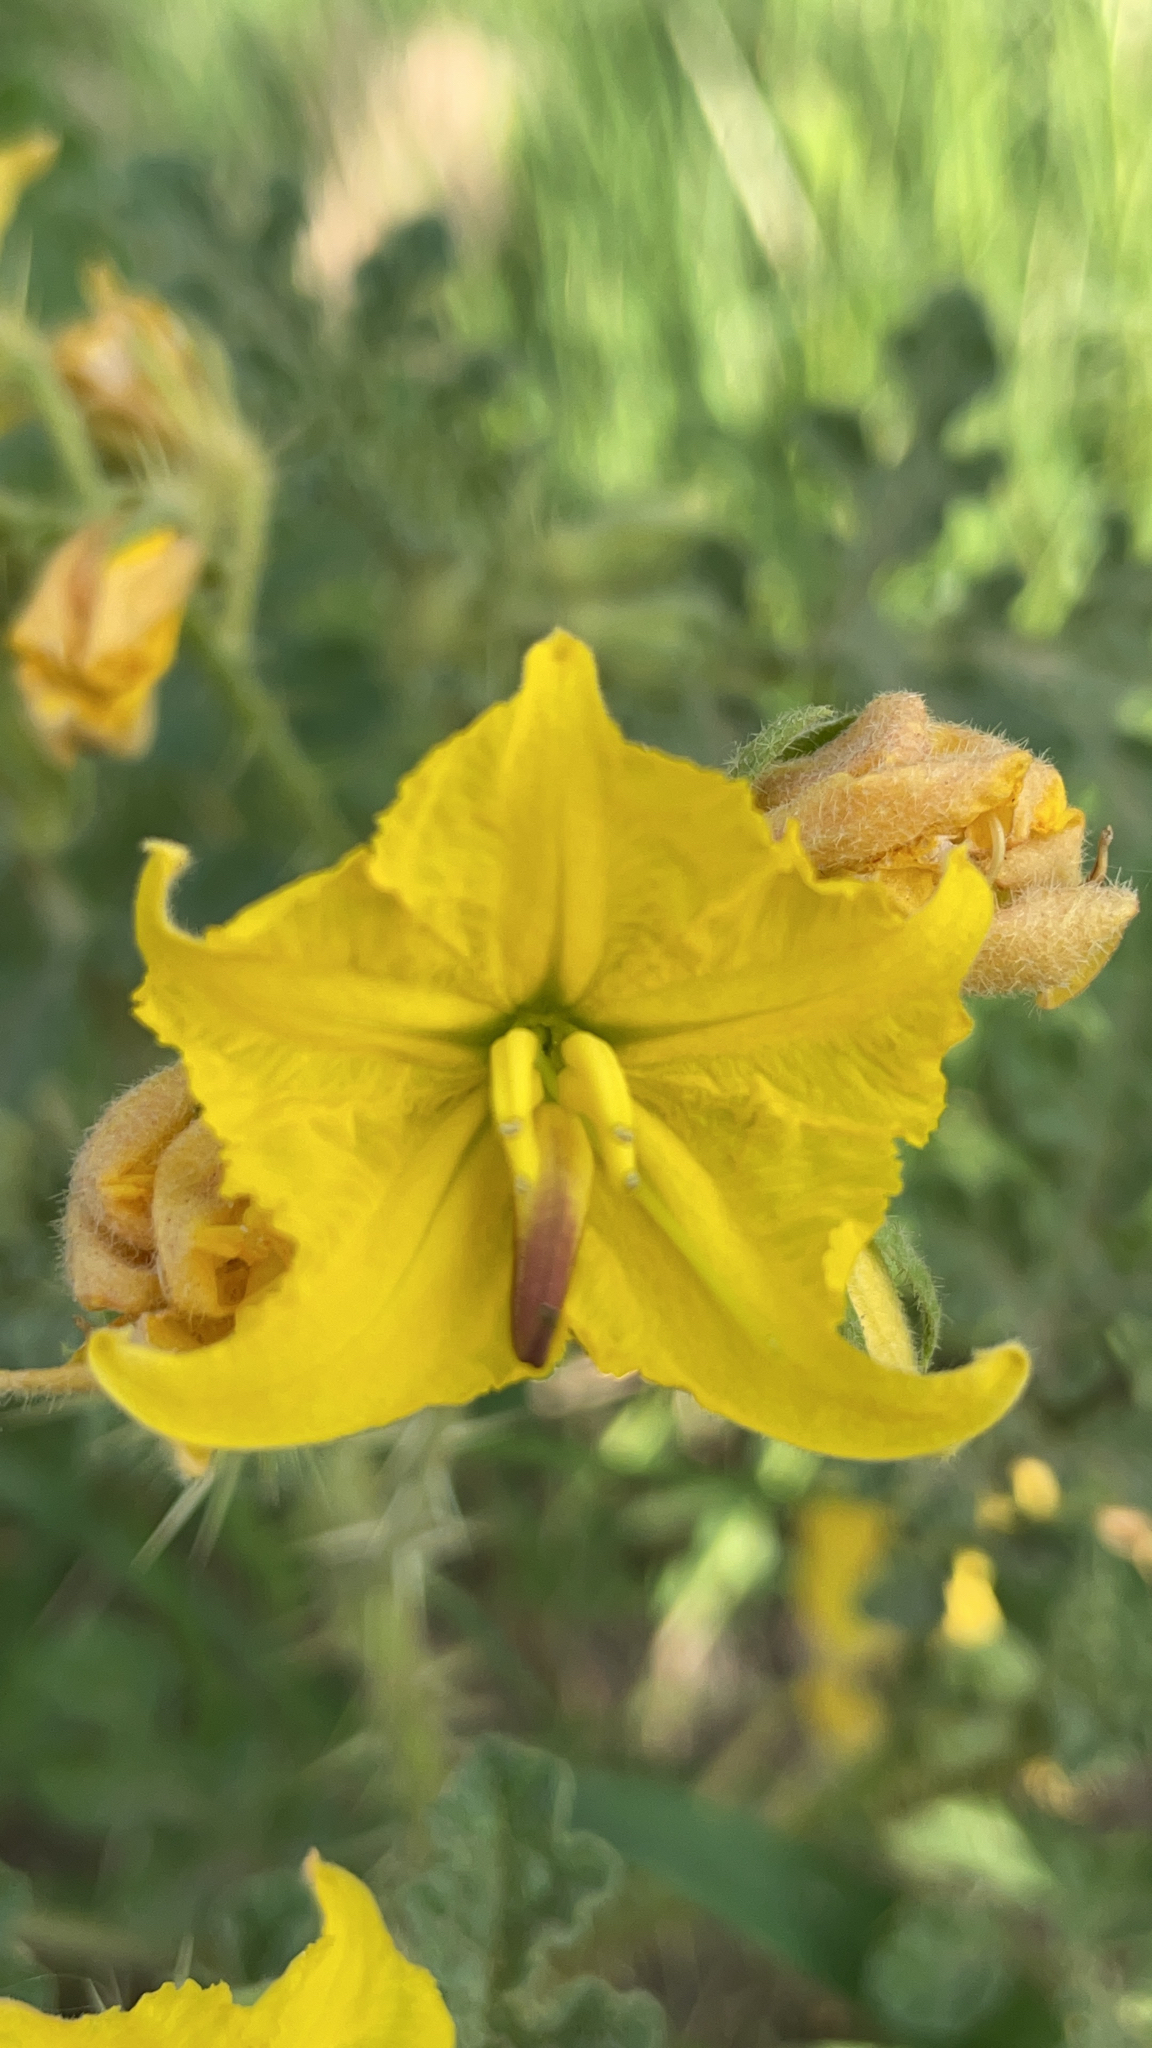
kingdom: Plantae
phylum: Tracheophyta
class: Magnoliopsida
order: Solanales
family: Solanaceae
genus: Solanum
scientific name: Solanum angustifolium
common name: Buffalobur nightshade
